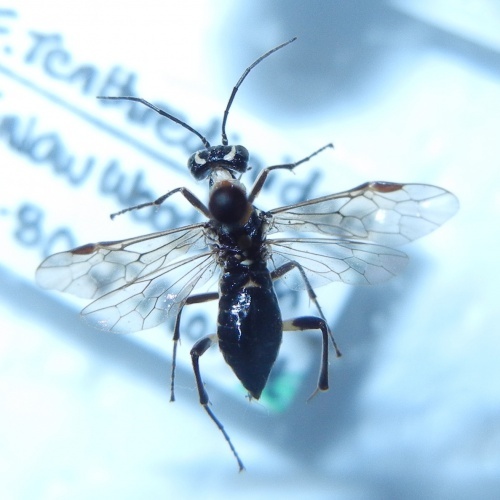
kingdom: Animalia
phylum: Arthropoda
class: Insecta
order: Hymenoptera
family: Tenthredinidae
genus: Pachyprotasis
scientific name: Pachyprotasis rapae
